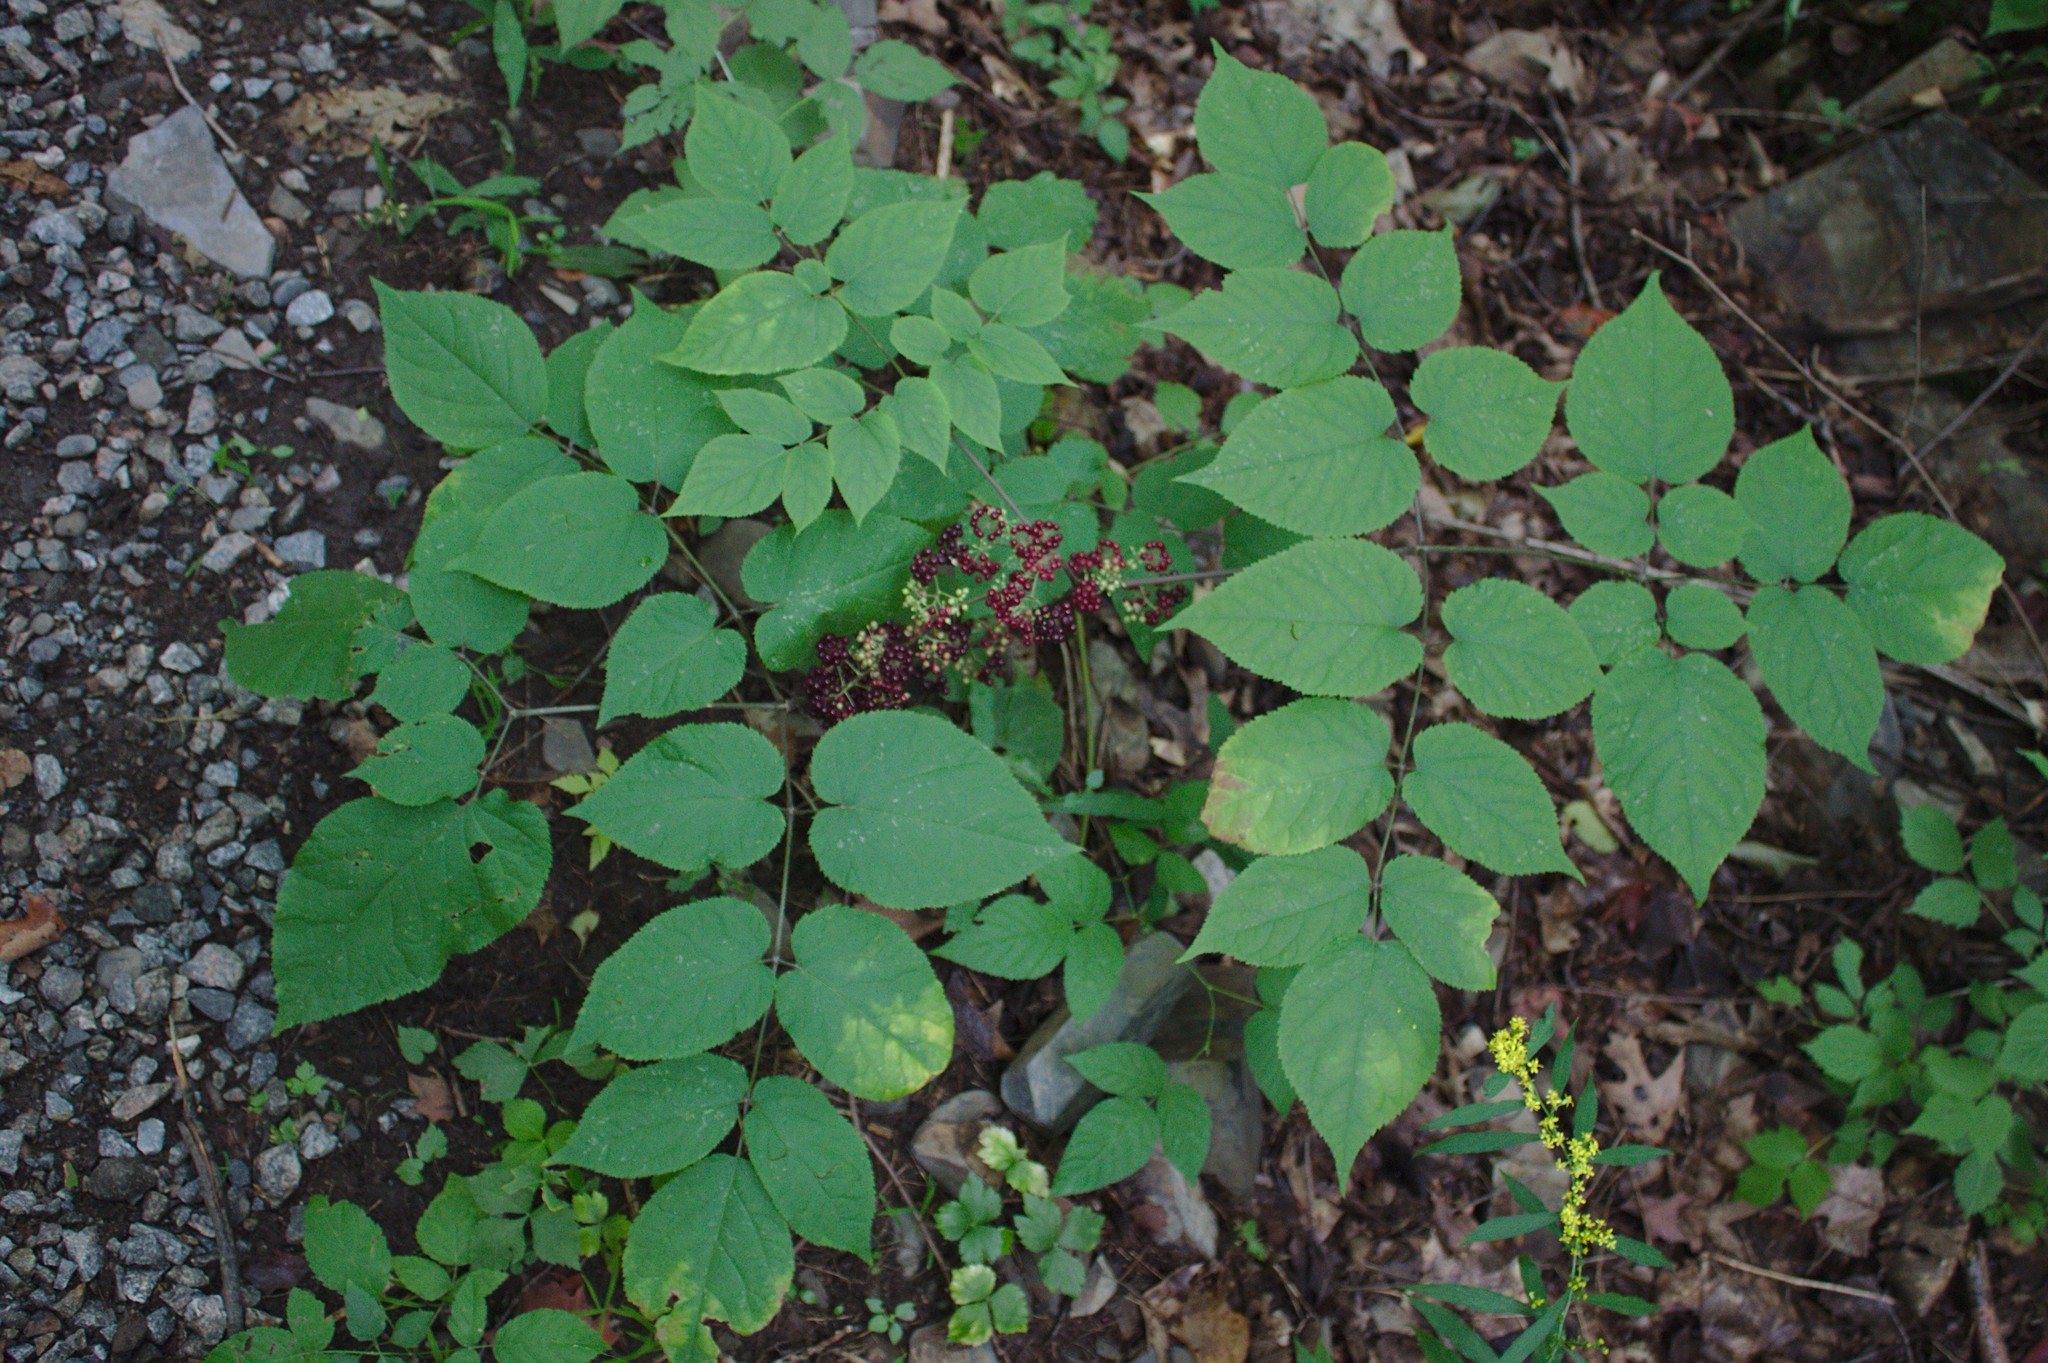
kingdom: Plantae
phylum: Tracheophyta
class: Magnoliopsida
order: Apiales
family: Araliaceae
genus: Aralia
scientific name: Aralia racemosa
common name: American-spikenard
